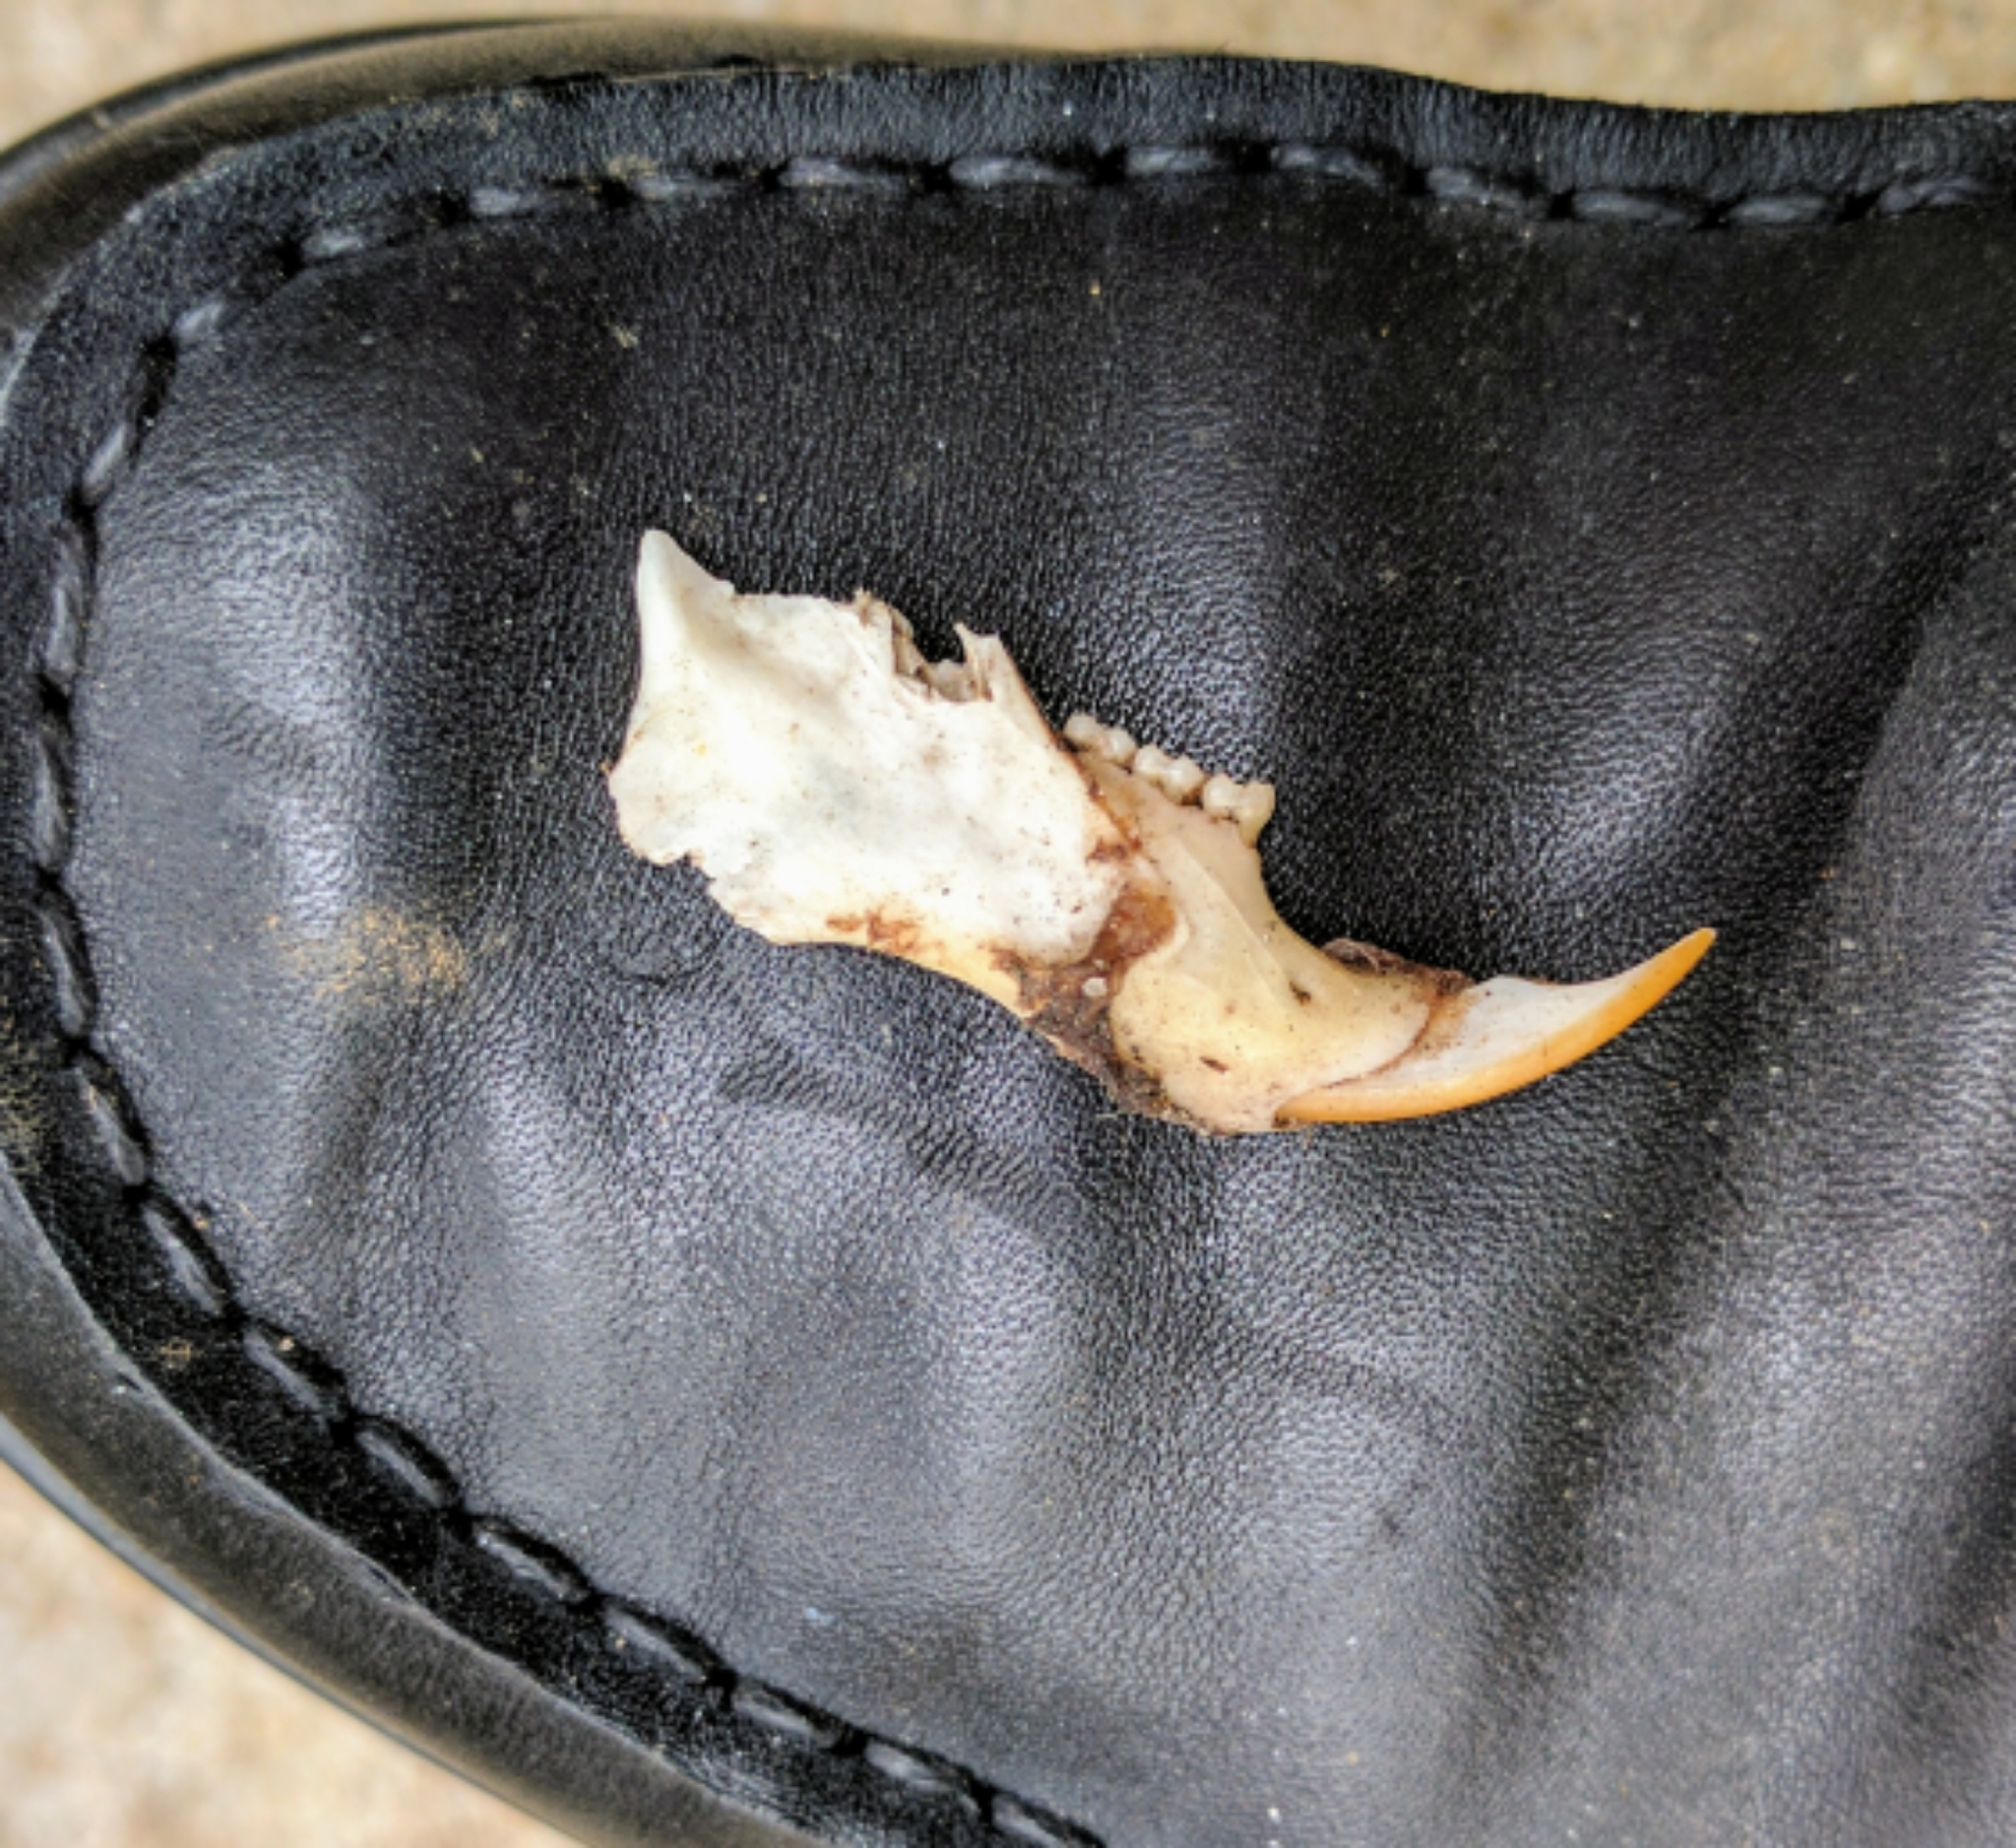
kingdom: Animalia
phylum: Chordata
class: Mammalia
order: Rodentia
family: Sciuridae
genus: Sciurus
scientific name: Sciurus carolinensis
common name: Eastern gray squirrel
